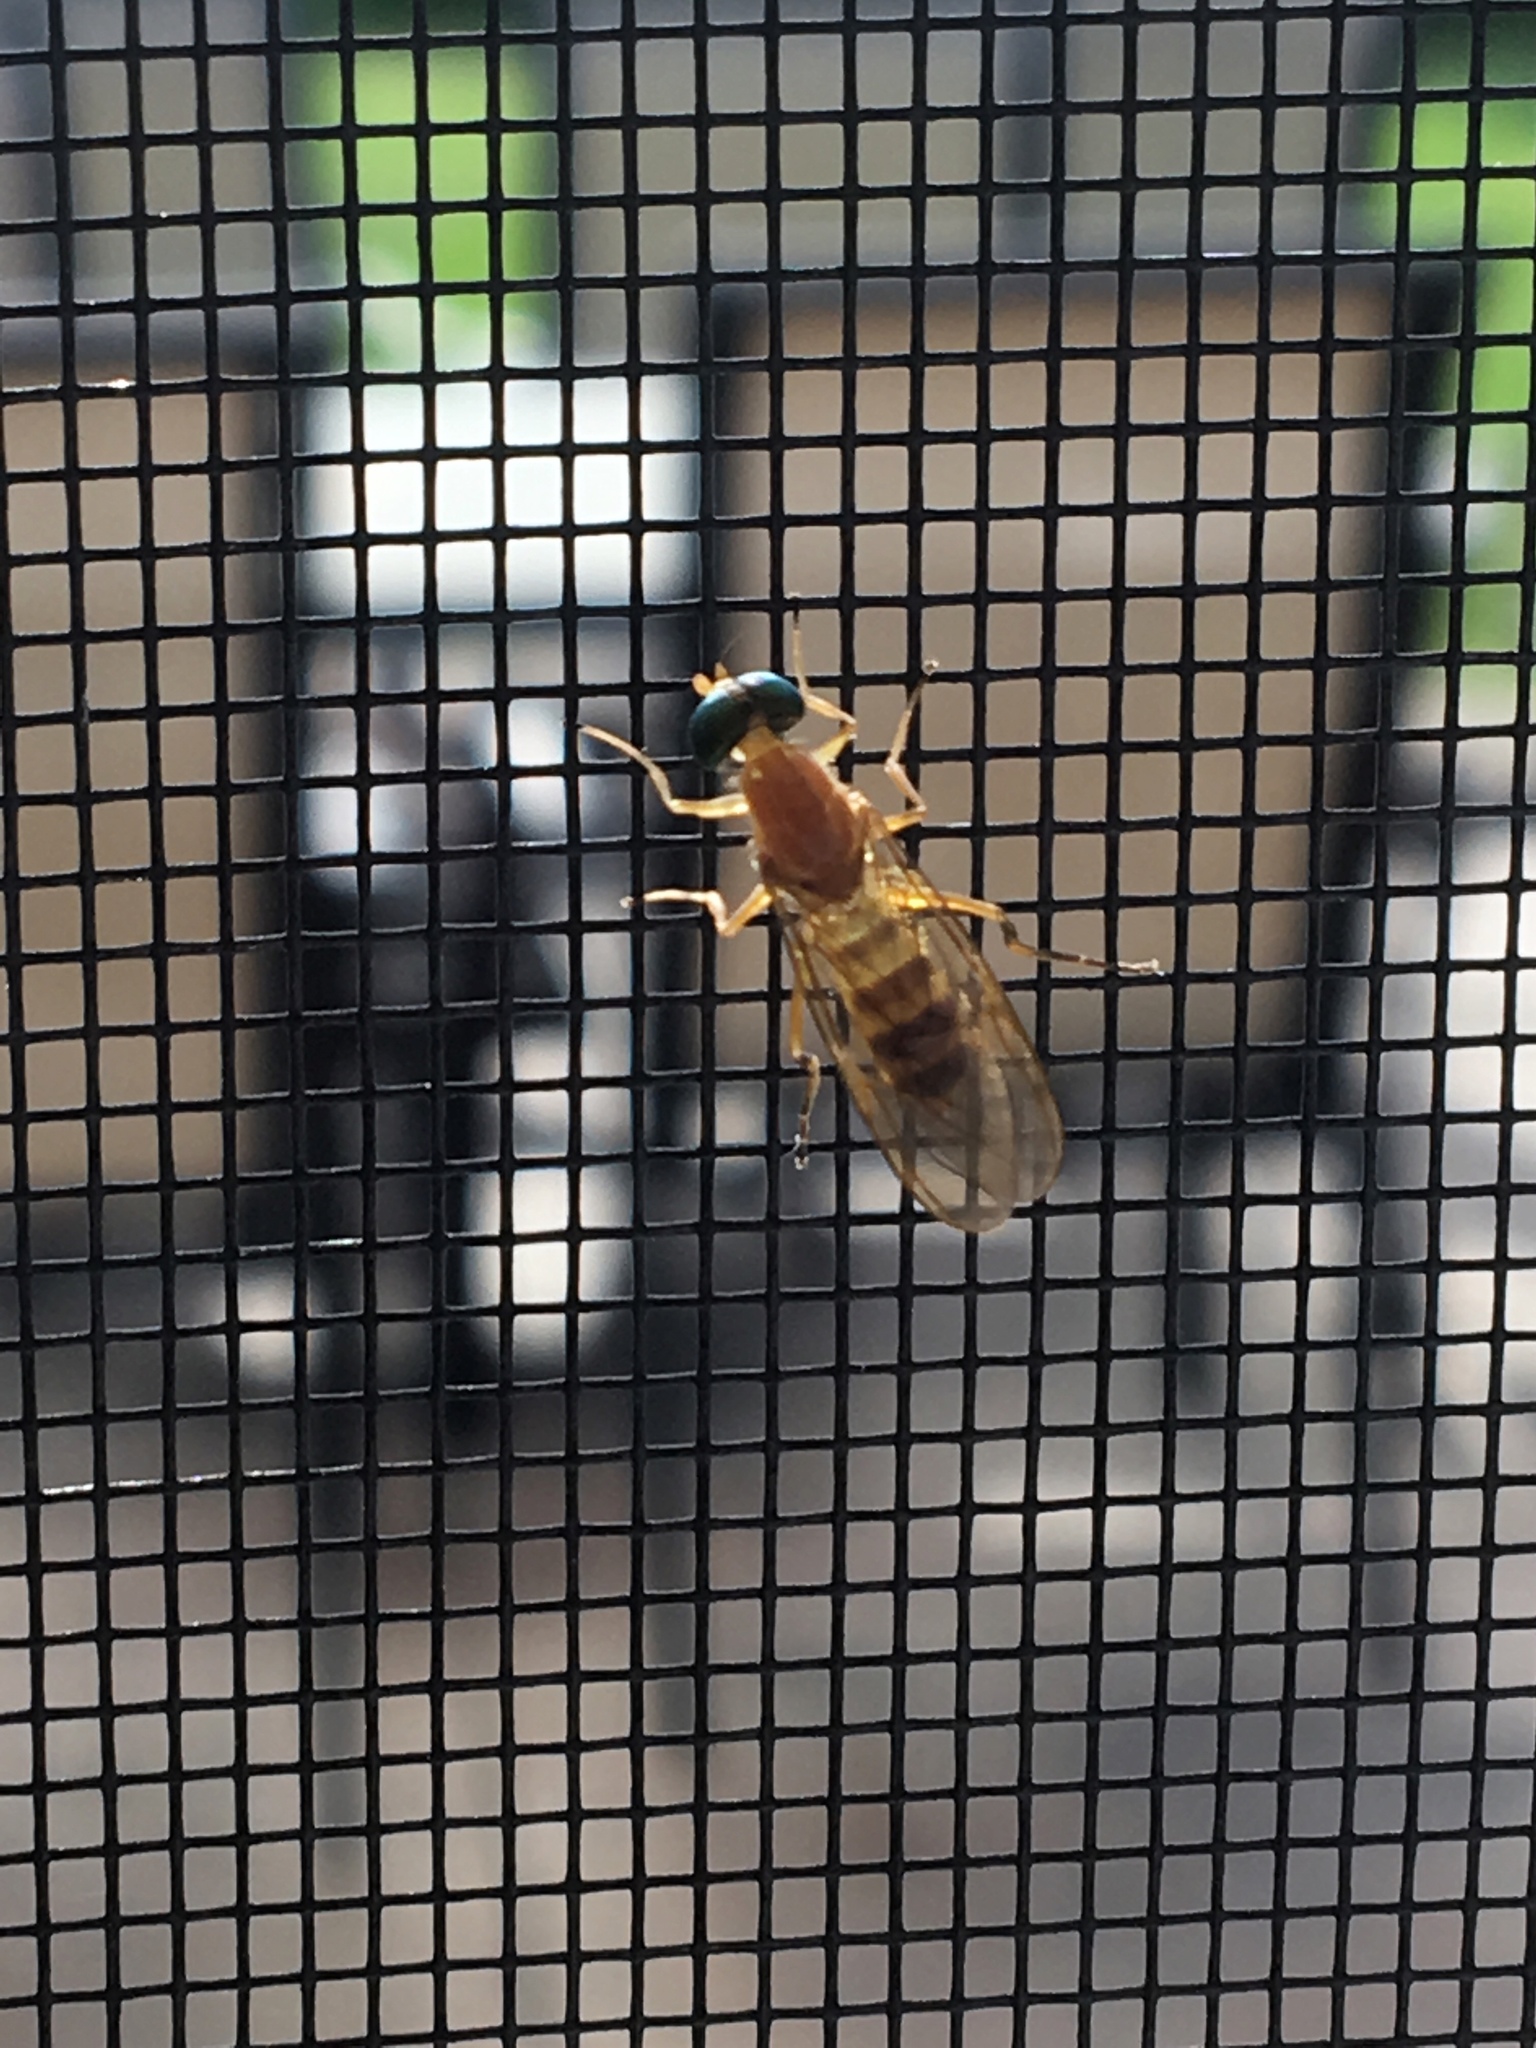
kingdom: Animalia
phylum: Arthropoda
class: Insecta
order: Diptera
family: Stratiomyidae
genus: Ptecticus
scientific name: Ptecticus trivittatus
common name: Compost fly
